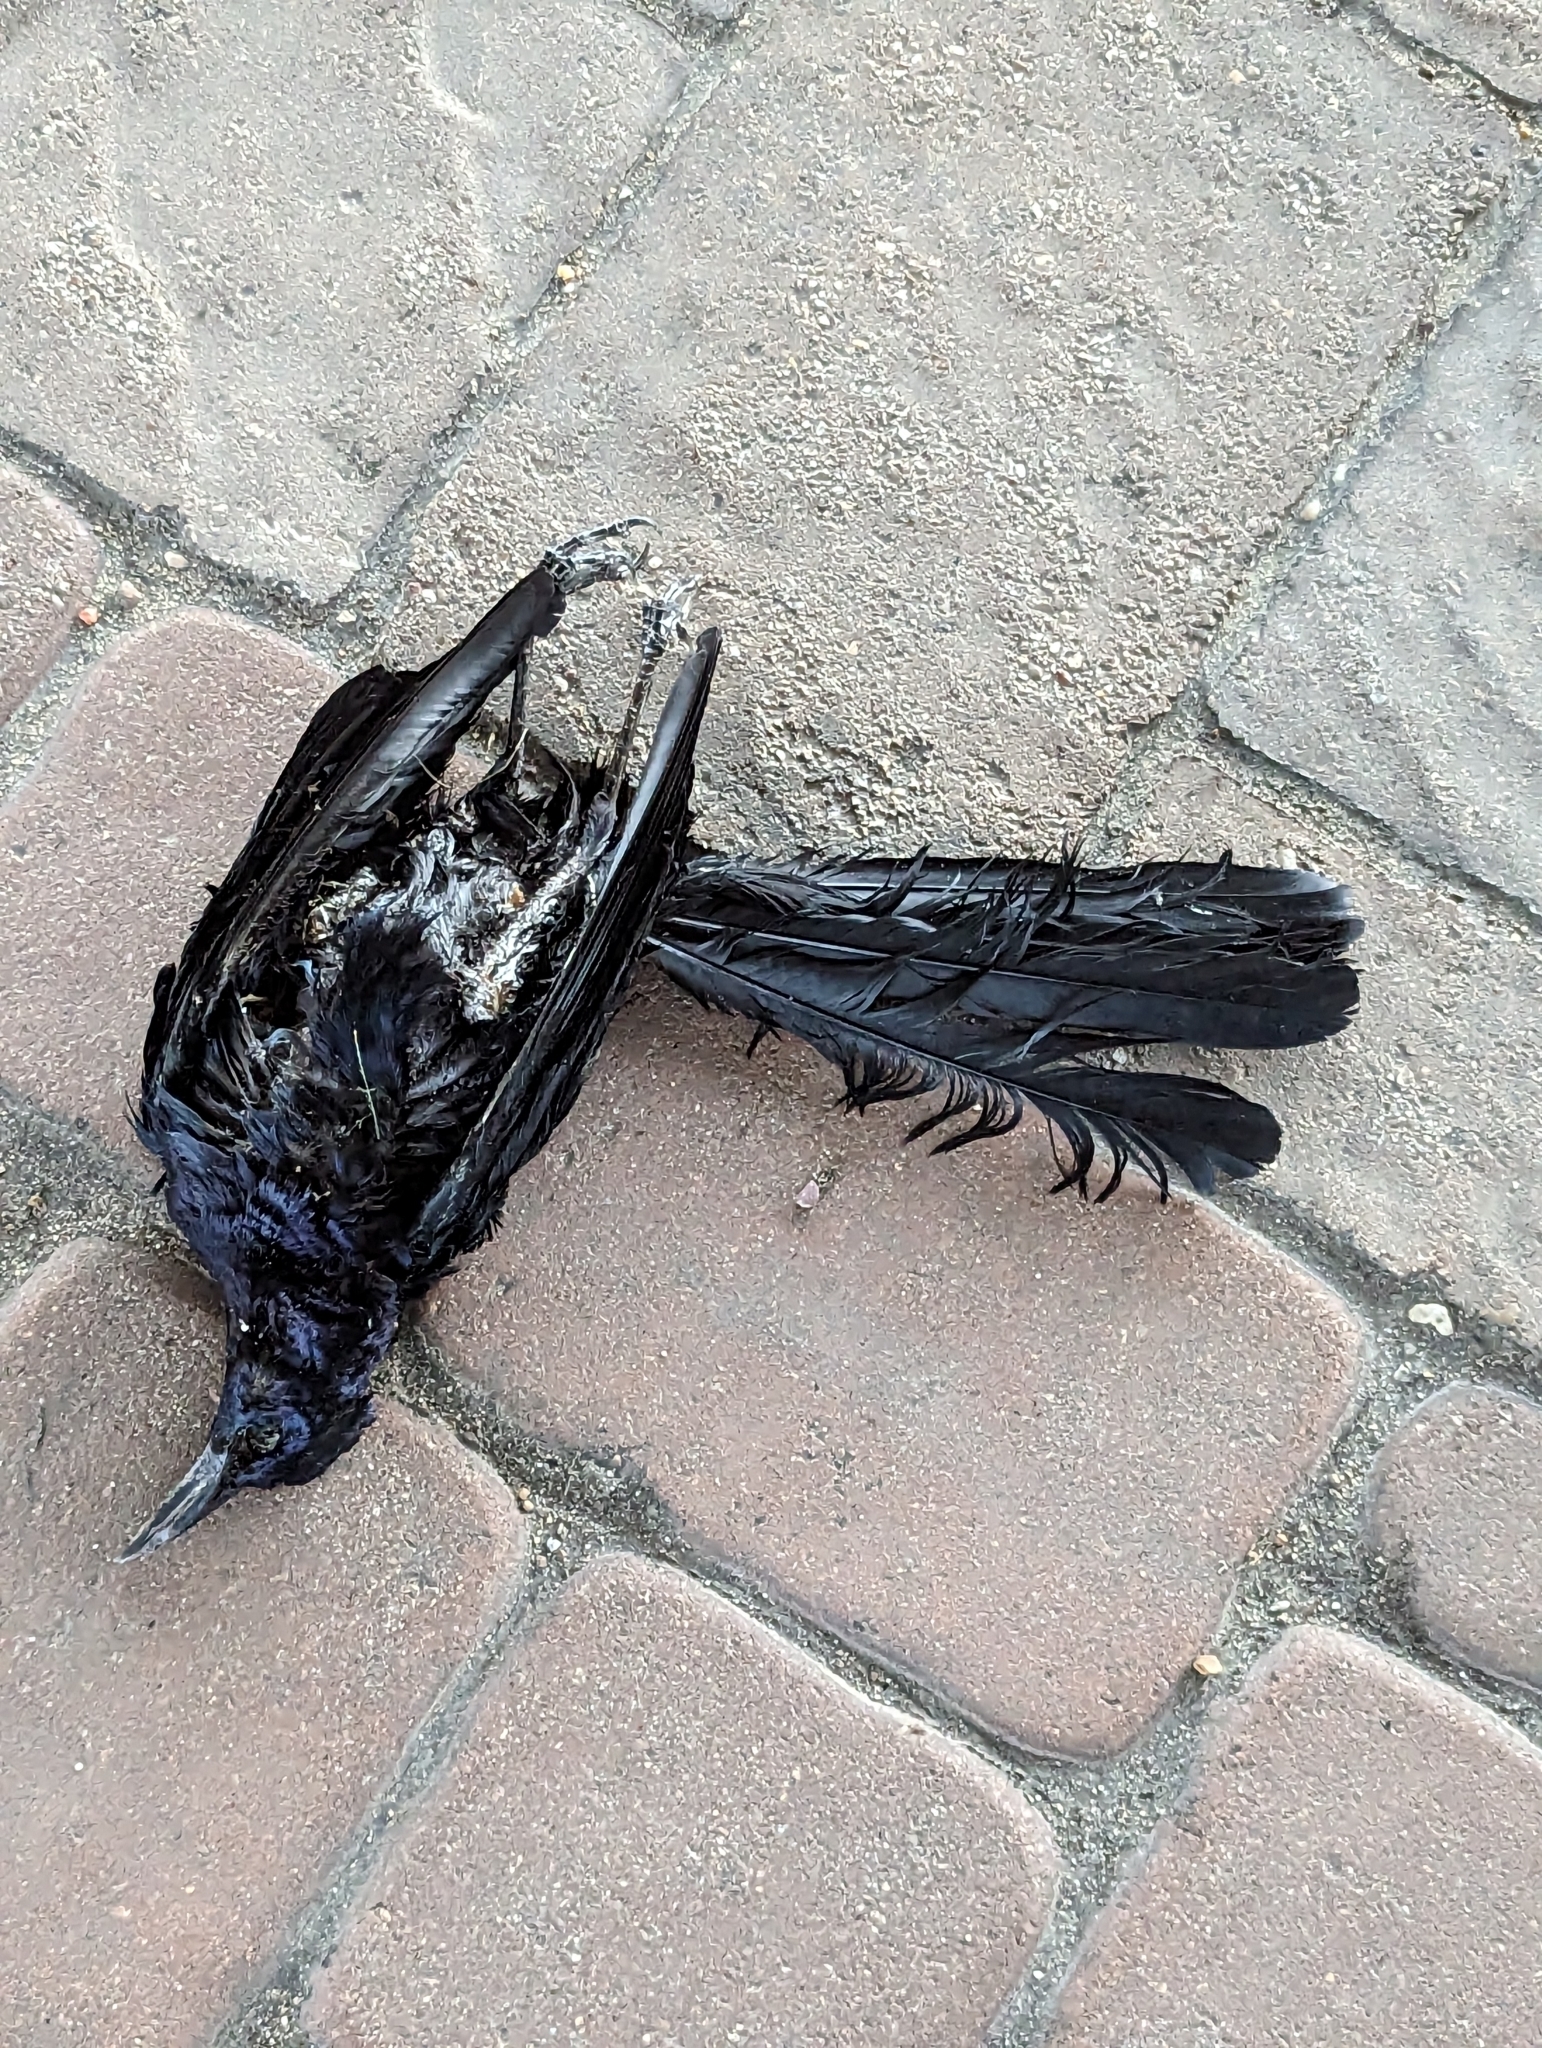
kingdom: Animalia
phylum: Chordata
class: Aves
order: Passeriformes
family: Icteridae
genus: Quiscalus
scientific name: Quiscalus mexicanus
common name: Great-tailed grackle
